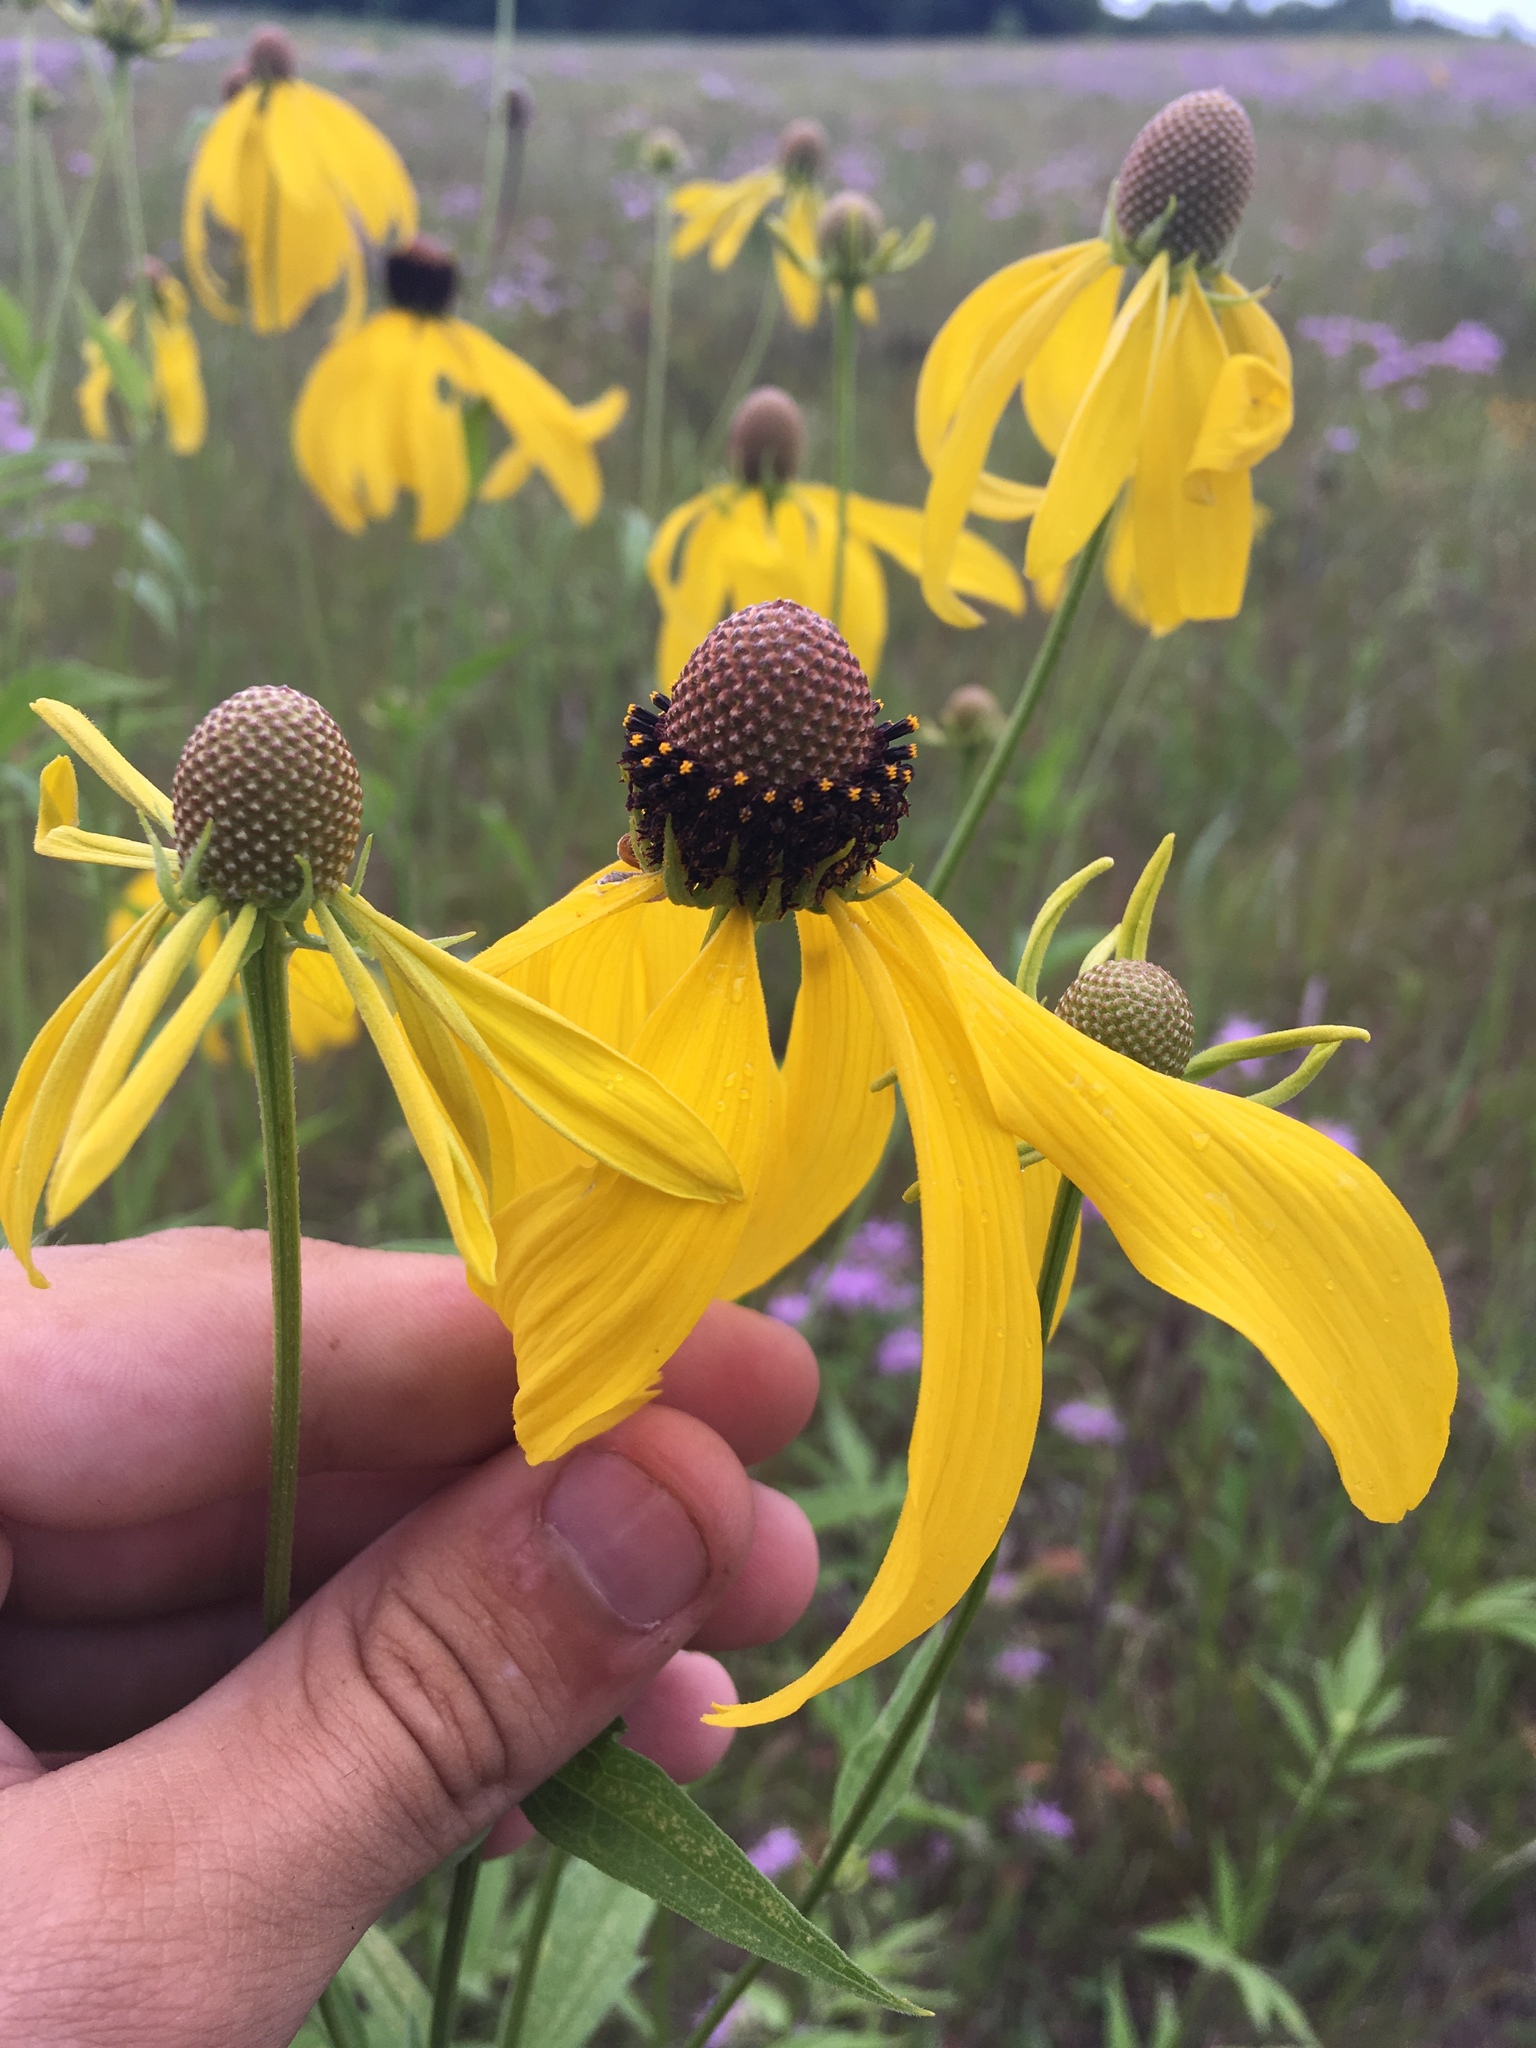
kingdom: Plantae
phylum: Tracheophyta
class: Magnoliopsida
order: Asterales
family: Asteraceae
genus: Ratibida
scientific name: Ratibida pinnata
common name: Drooping prairie-coneflower
